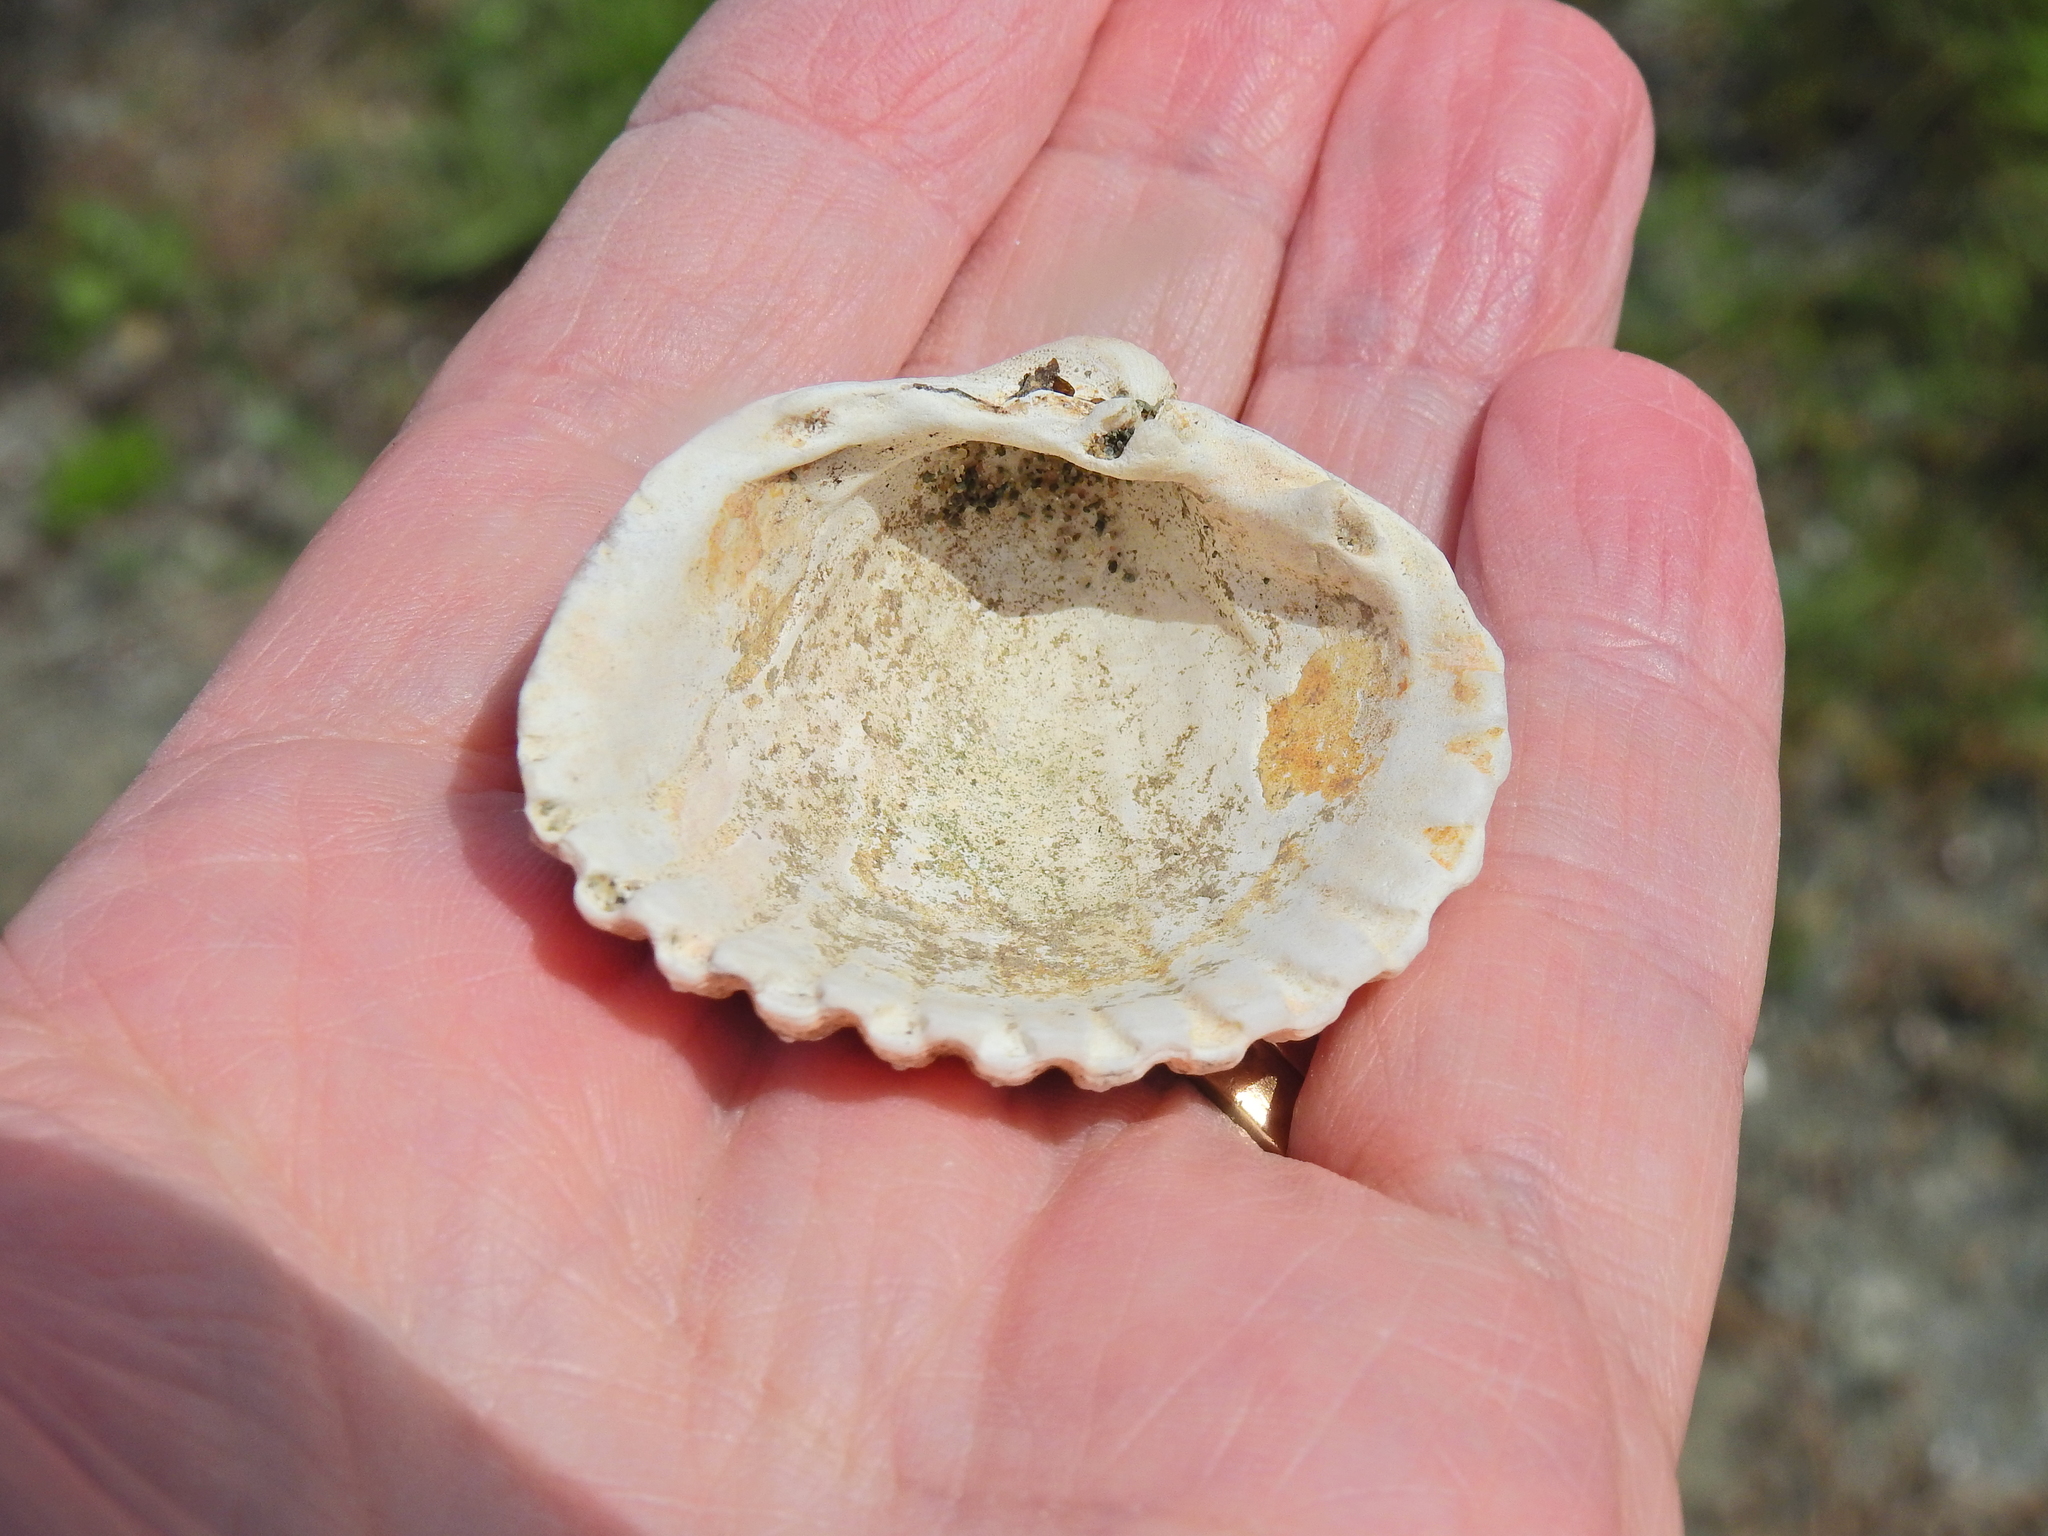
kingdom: Animalia
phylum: Mollusca
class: Bivalvia
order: Cardiida
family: Cardiidae
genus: Acanthocardia
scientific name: Acanthocardia echinata
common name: Prickly cockle
